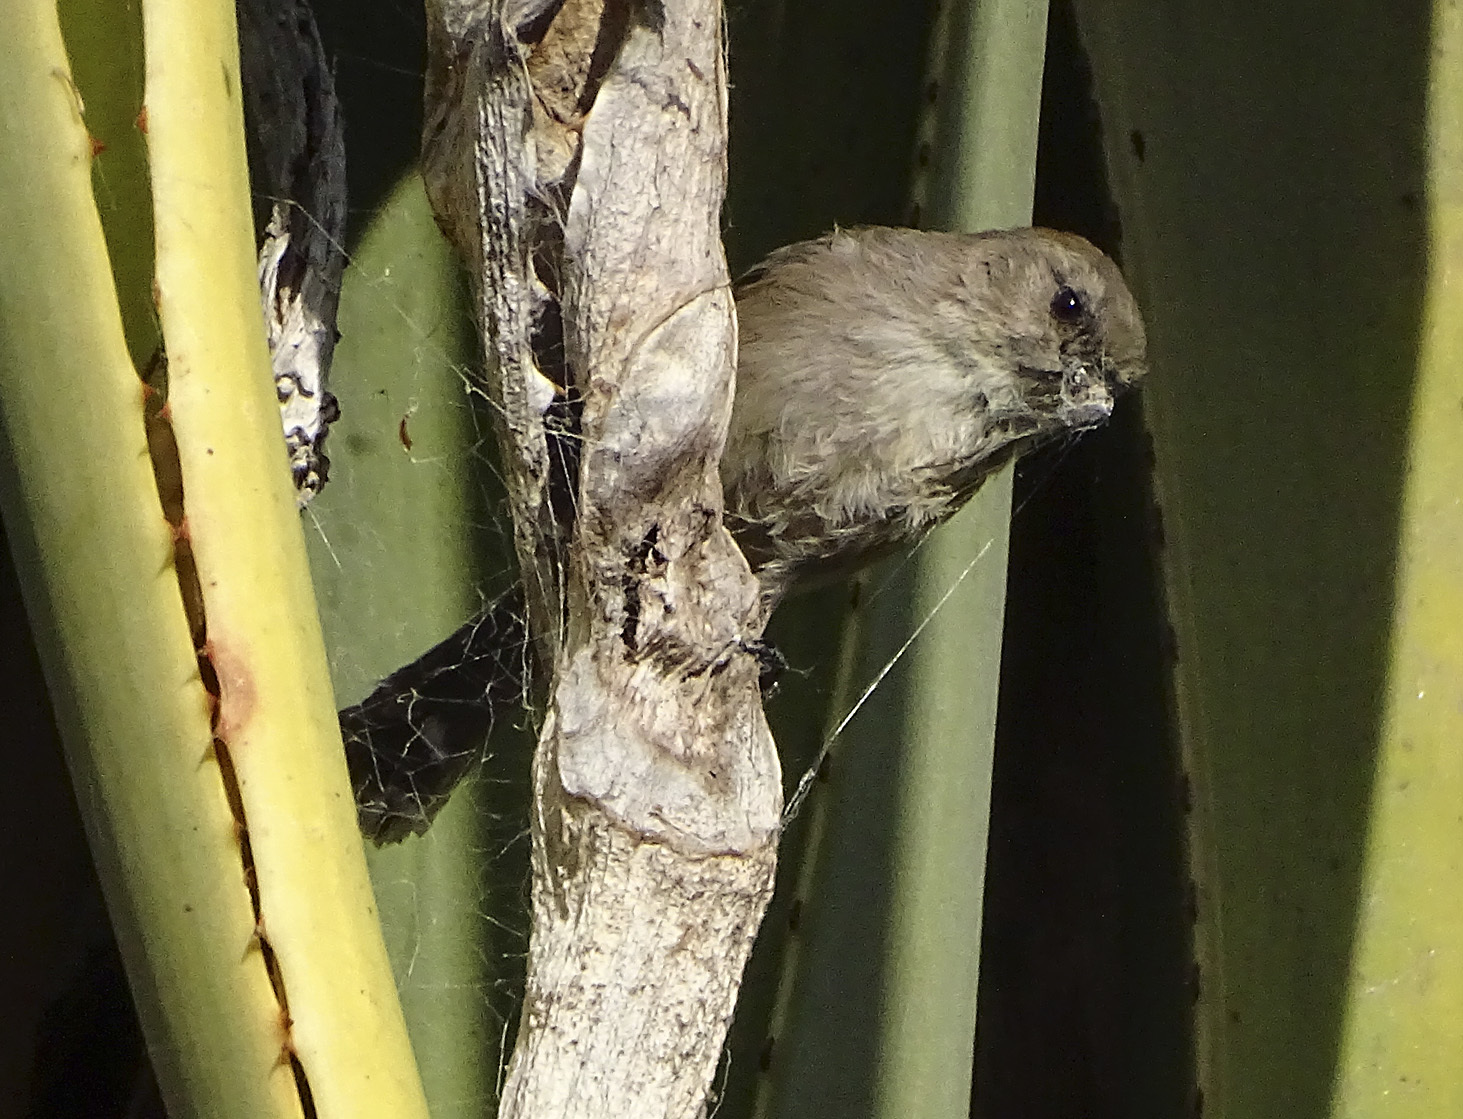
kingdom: Animalia
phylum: Chordata
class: Aves
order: Passeriformes
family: Aegithalidae
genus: Psaltriparus
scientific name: Psaltriparus minimus
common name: American bushtit
